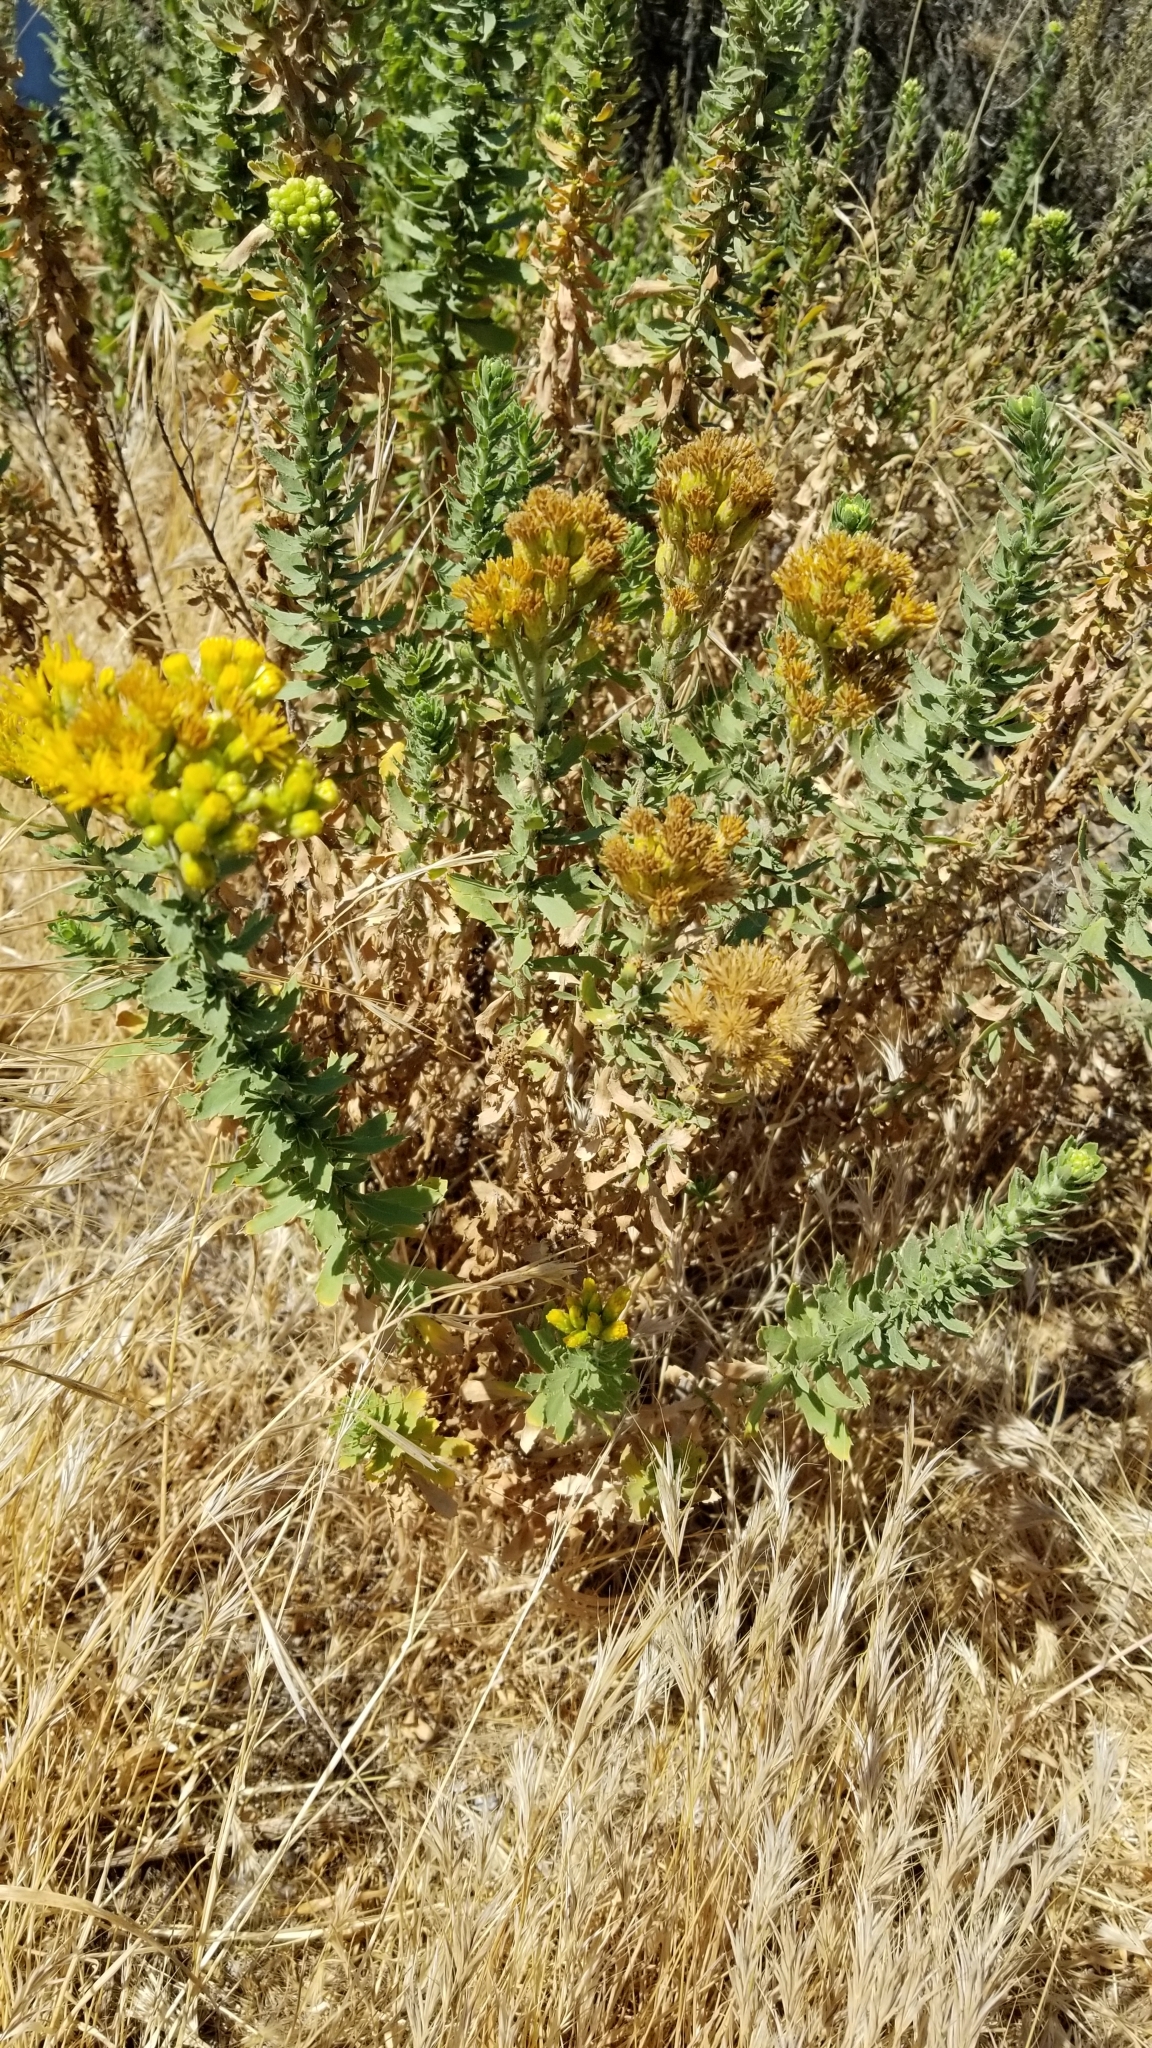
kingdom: Plantae
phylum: Tracheophyta
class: Magnoliopsida
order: Asterales
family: Asteraceae
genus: Isocoma
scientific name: Isocoma menziesii
